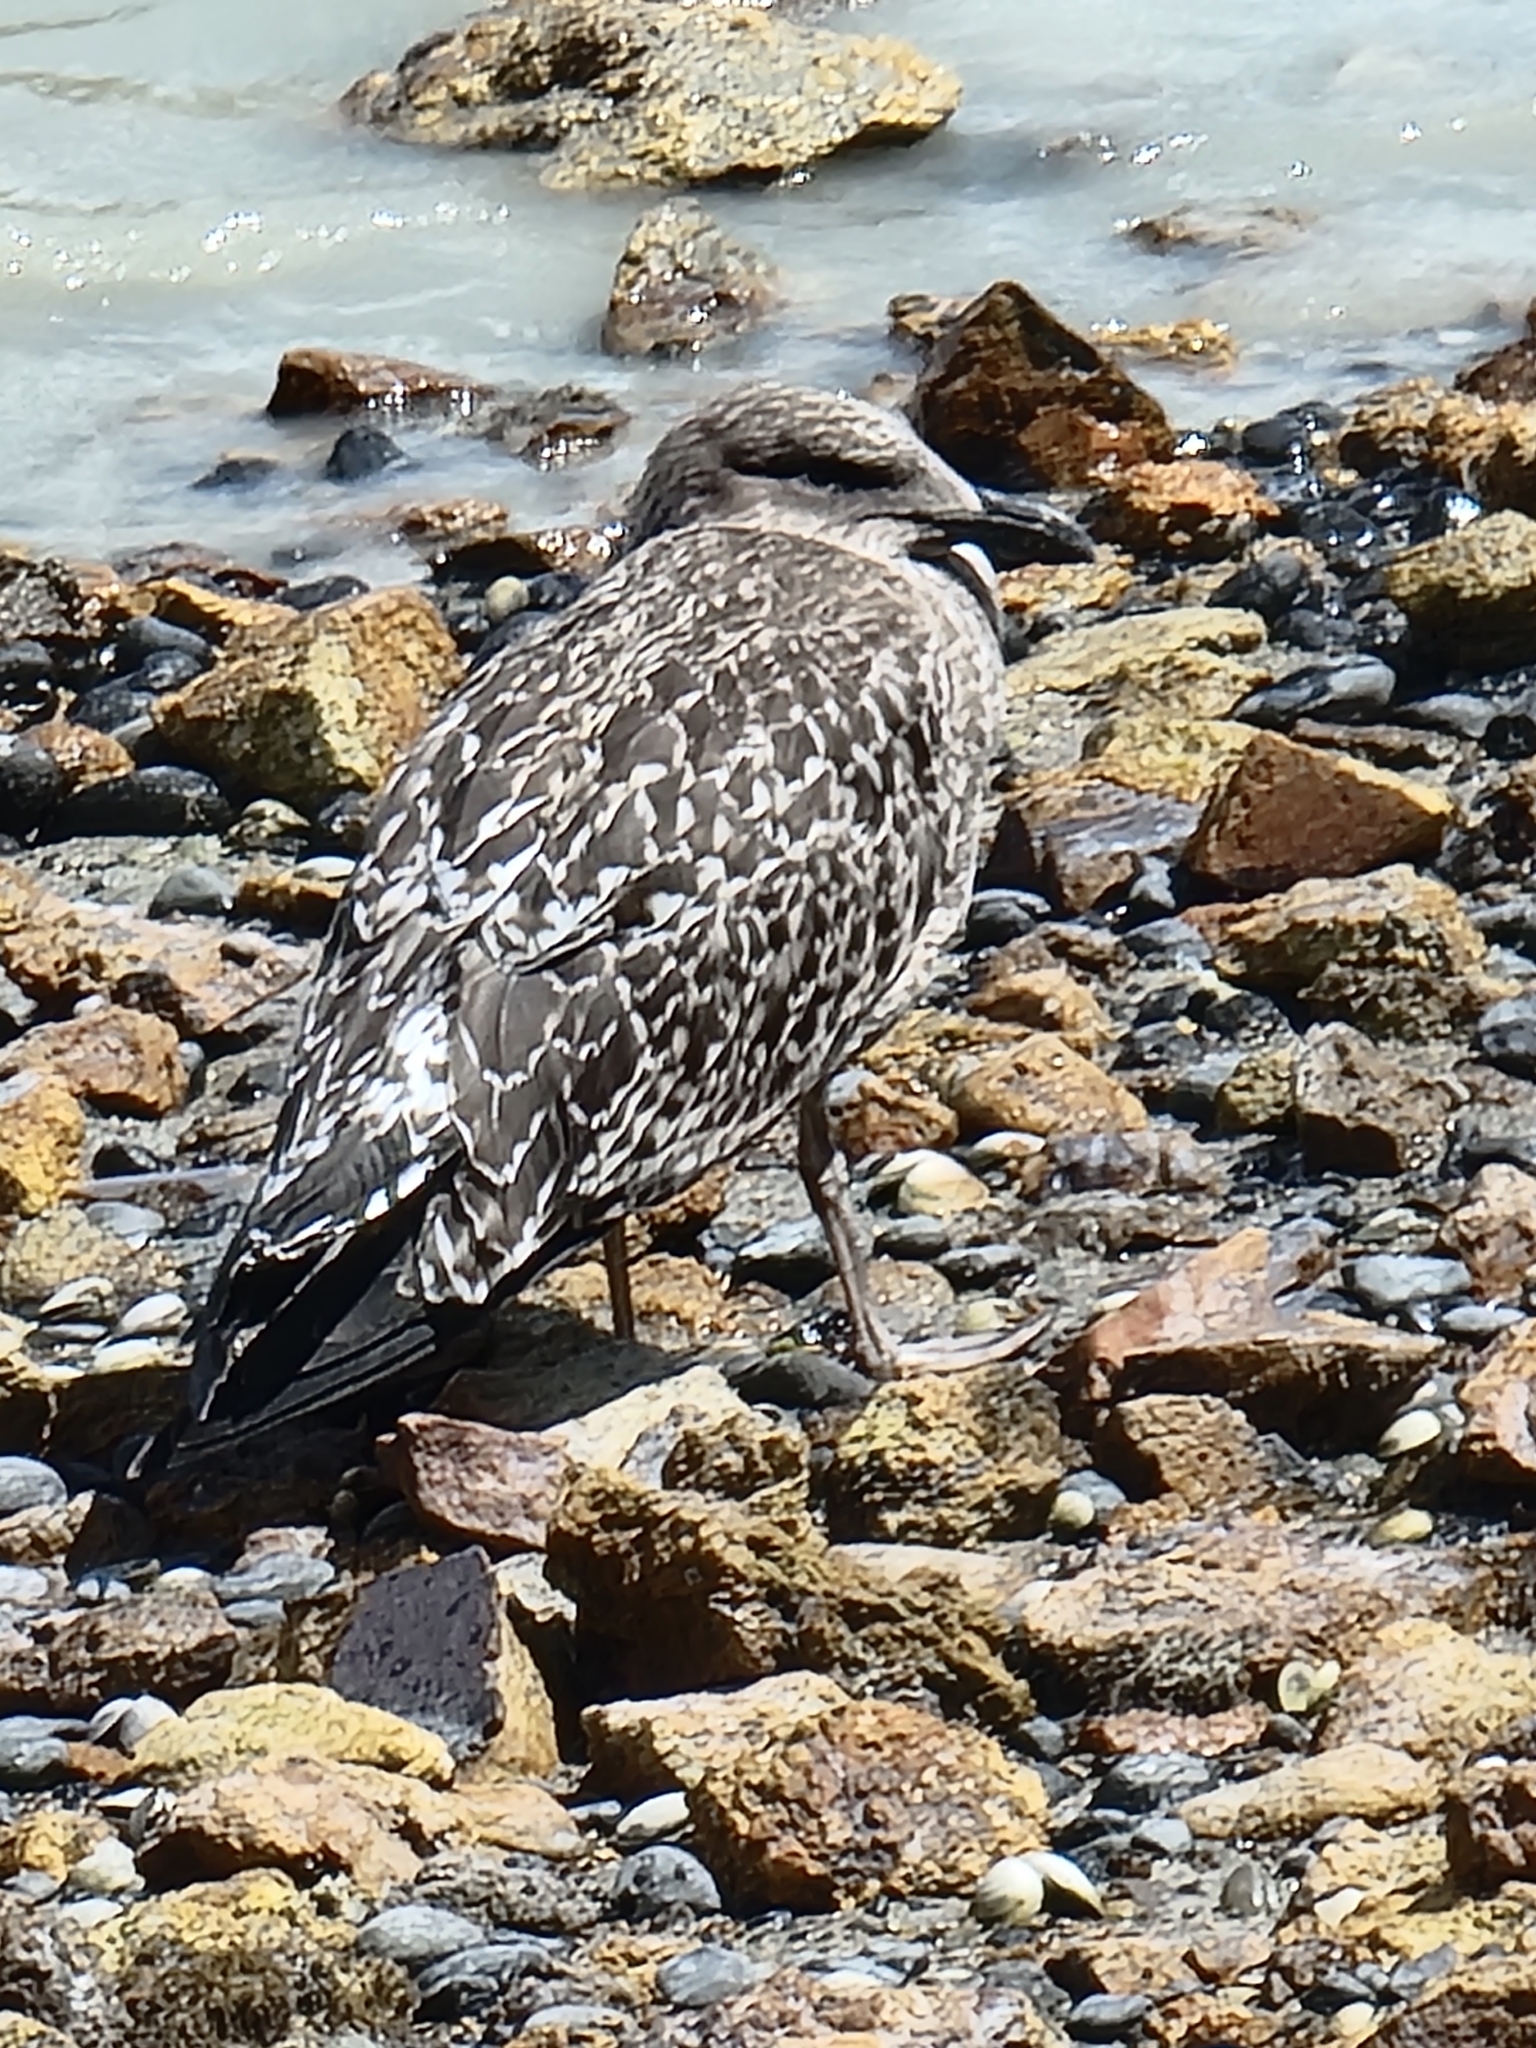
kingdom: Animalia
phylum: Chordata
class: Aves
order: Charadriiformes
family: Laridae
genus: Larus
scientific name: Larus dominicanus
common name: Kelp gull
